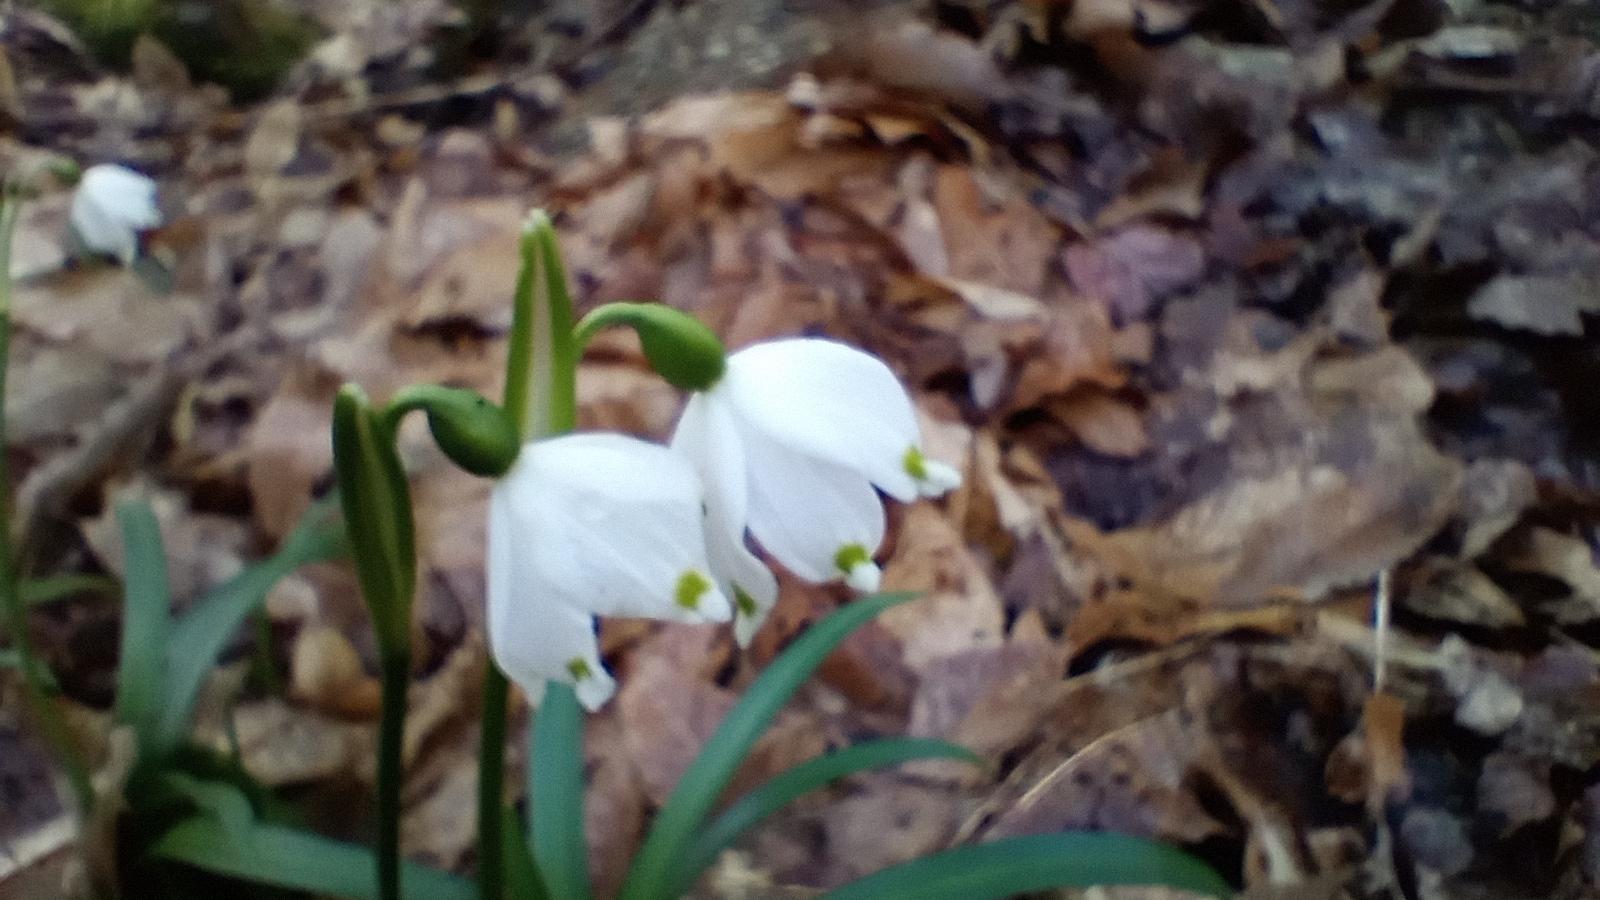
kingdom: Plantae
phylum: Tracheophyta
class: Liliopsida
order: Asparagales
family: Amaryllidaceae
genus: Leucojum
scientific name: Leucojum vernum
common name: Spring snowflake
